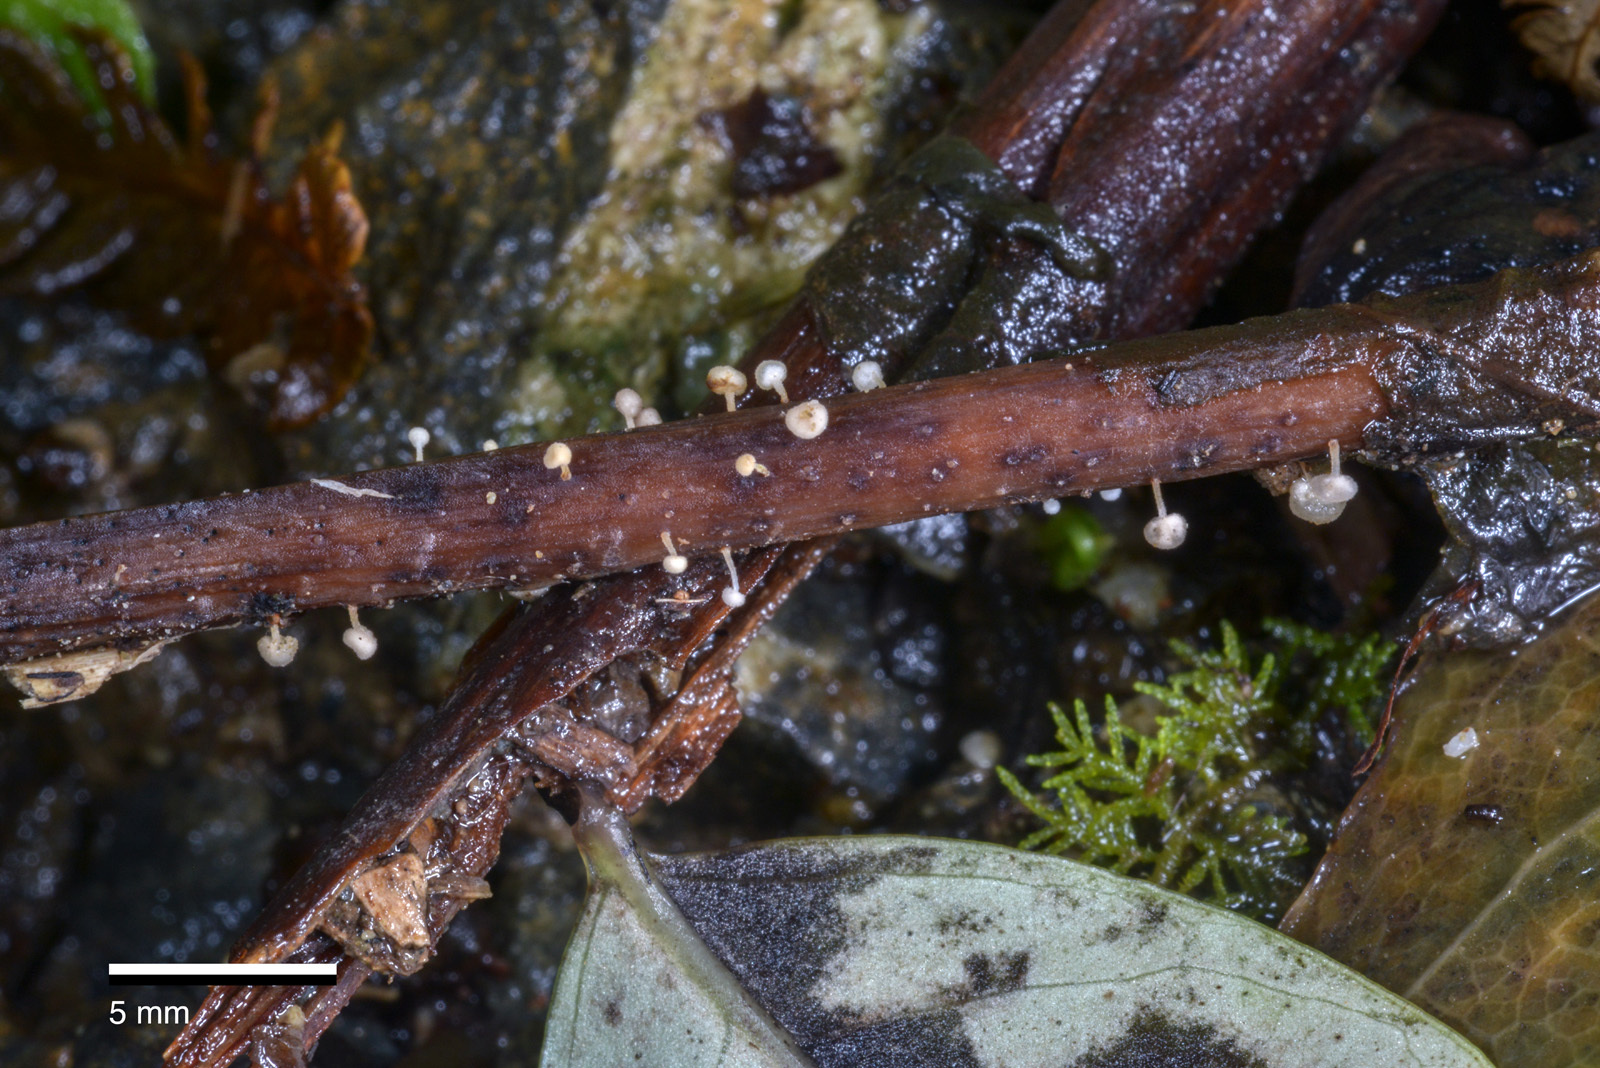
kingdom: Fungi
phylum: Basidiomycota
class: Agaricomycetes
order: Agaricales
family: Physalacriaceae
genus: Physalacria
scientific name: Physalacria stilboidea
